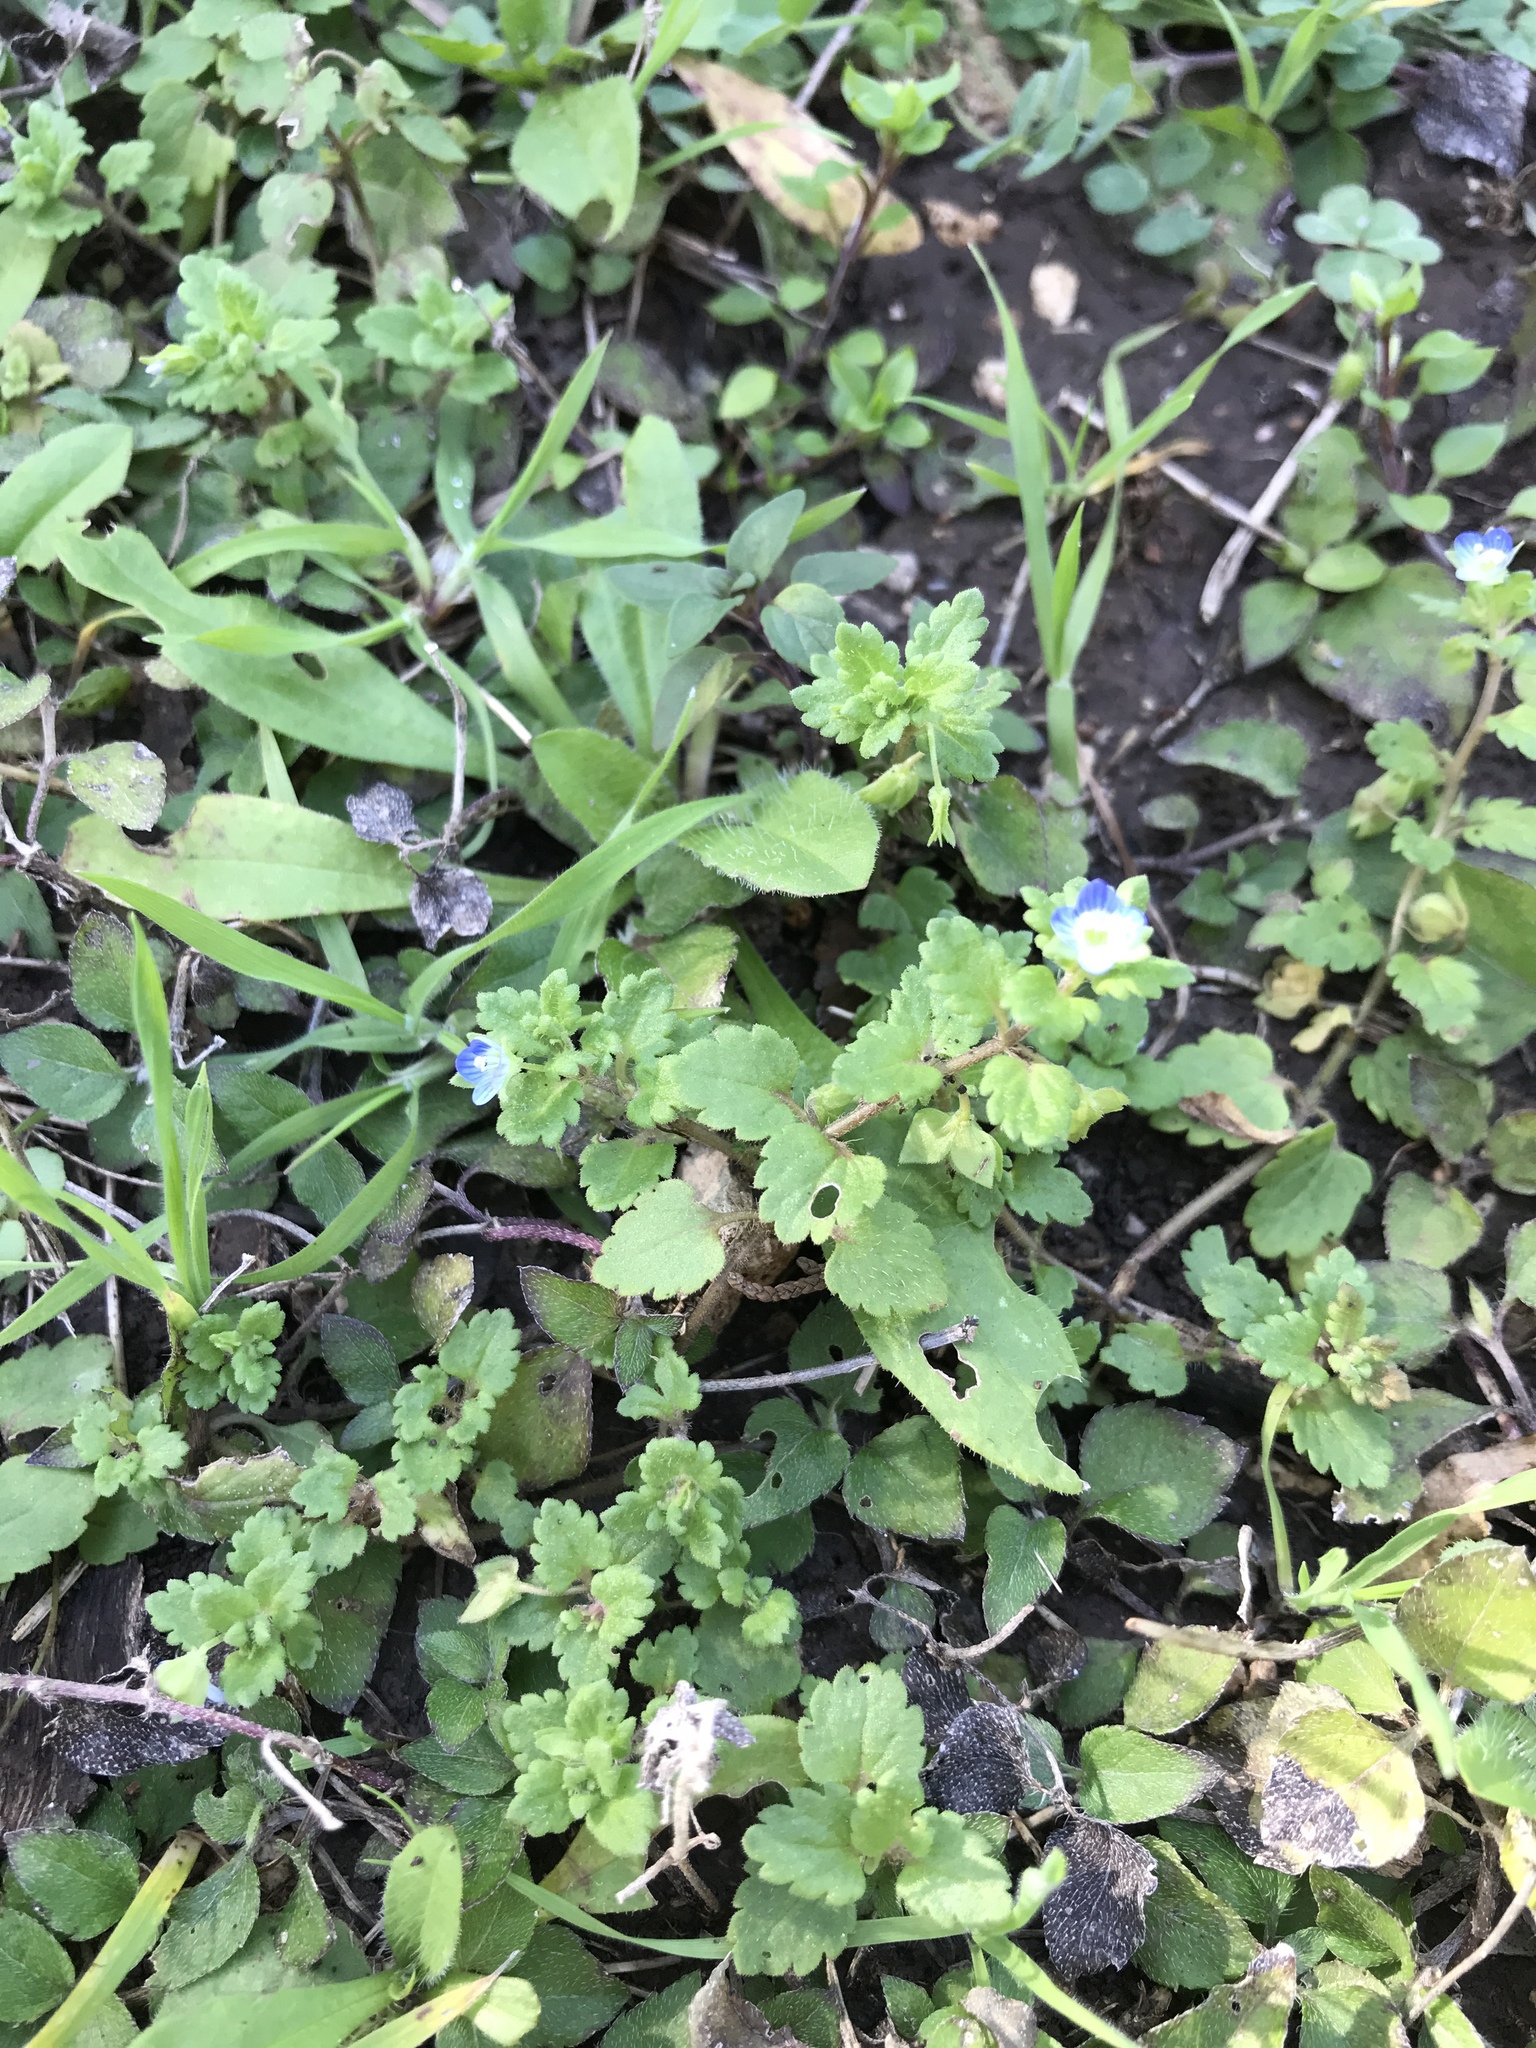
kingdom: Plantae
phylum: Tracheophyta
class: Magnoliopsida
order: Lamiales
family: Plantaginaceae
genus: Veronica
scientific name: Veronica persica
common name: Common field-speedwell
